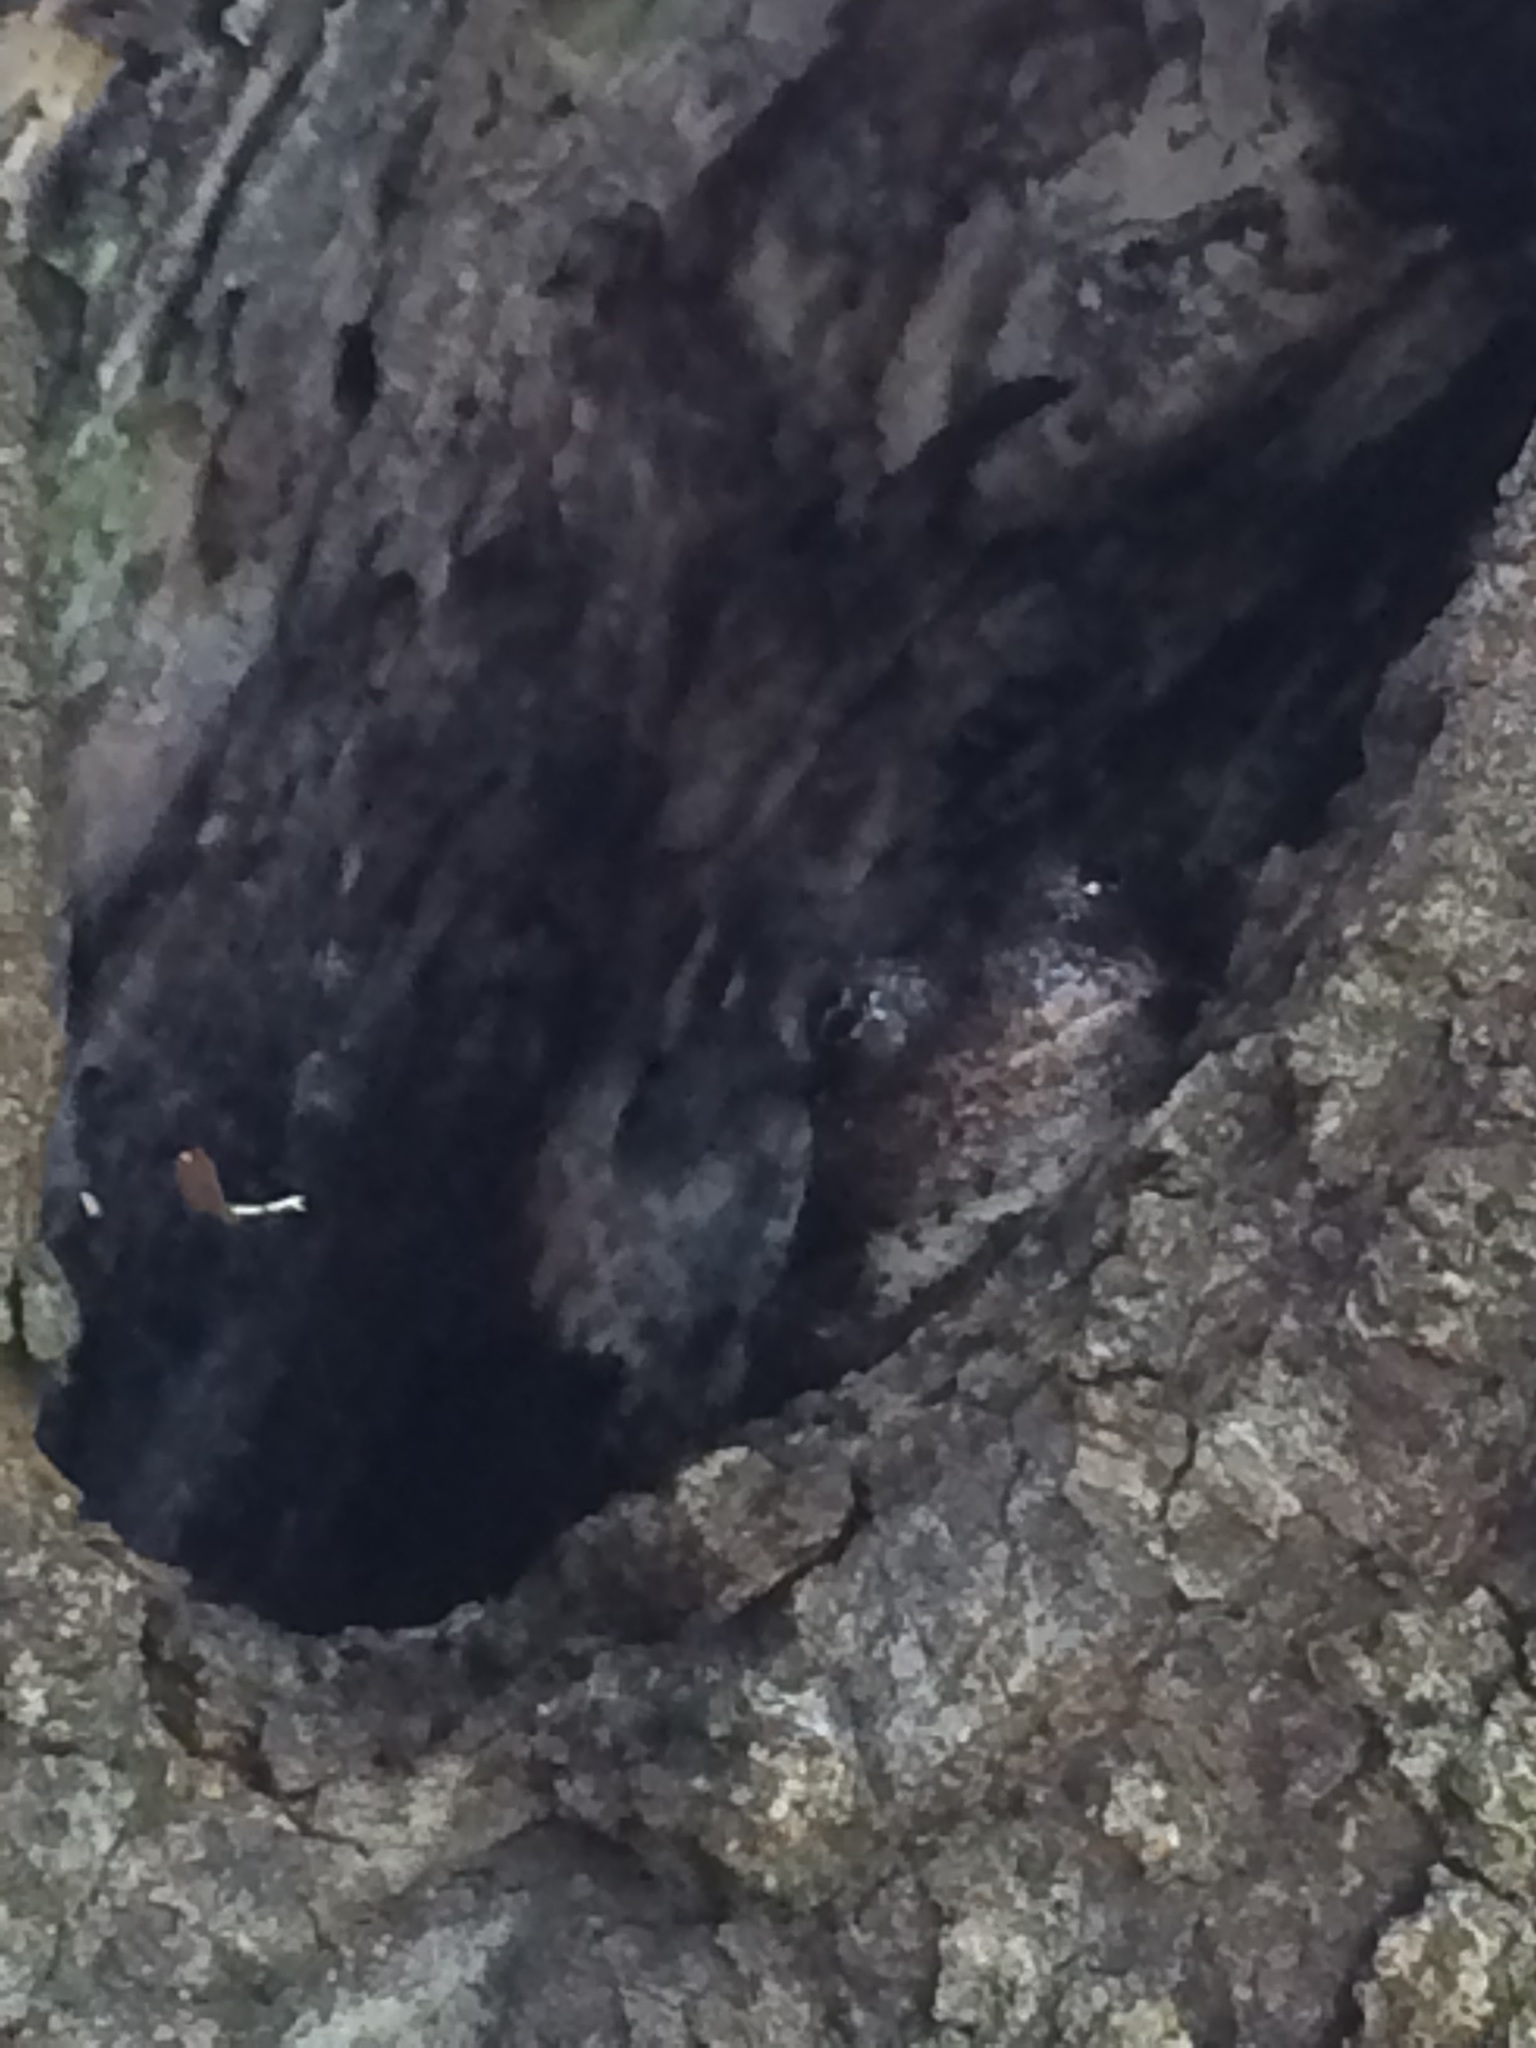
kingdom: Animalia
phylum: Chordata
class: Amphibia
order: Anura
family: Hylidae
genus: Dryophytes
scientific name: Dryophytes chrysoscelis
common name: Cope's gray treefrog
